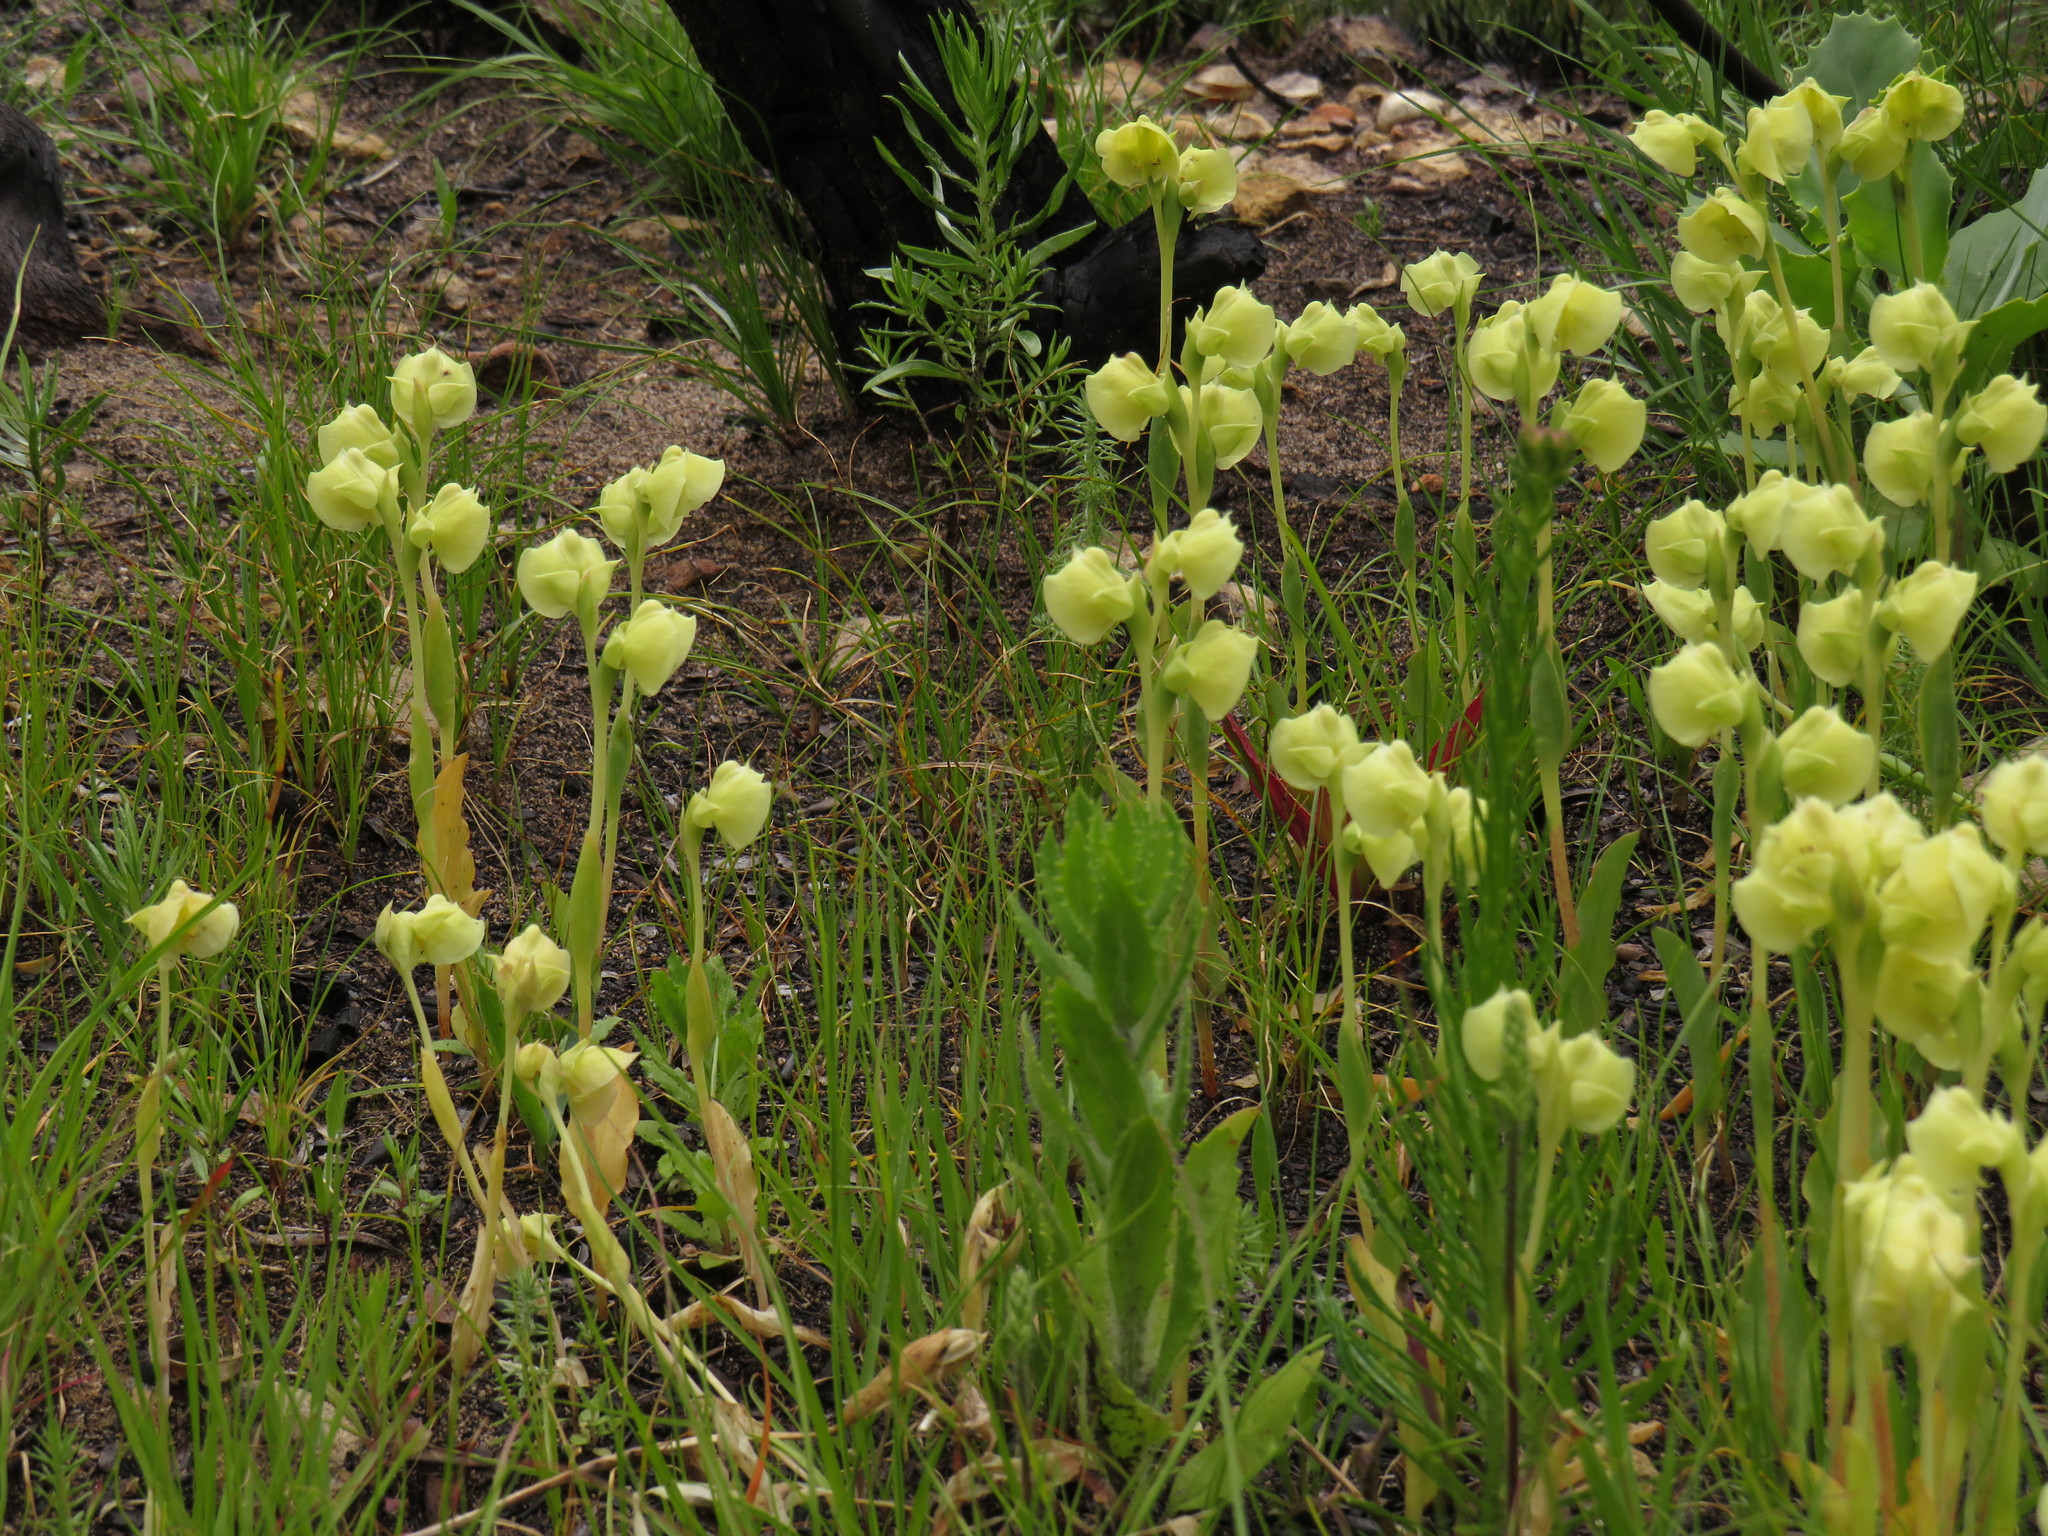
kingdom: Plantae
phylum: Tracheophyta
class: Liliopsida
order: Asparagales
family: Orchidaceae
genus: Pterygodium
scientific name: Pterygodium catholicum
